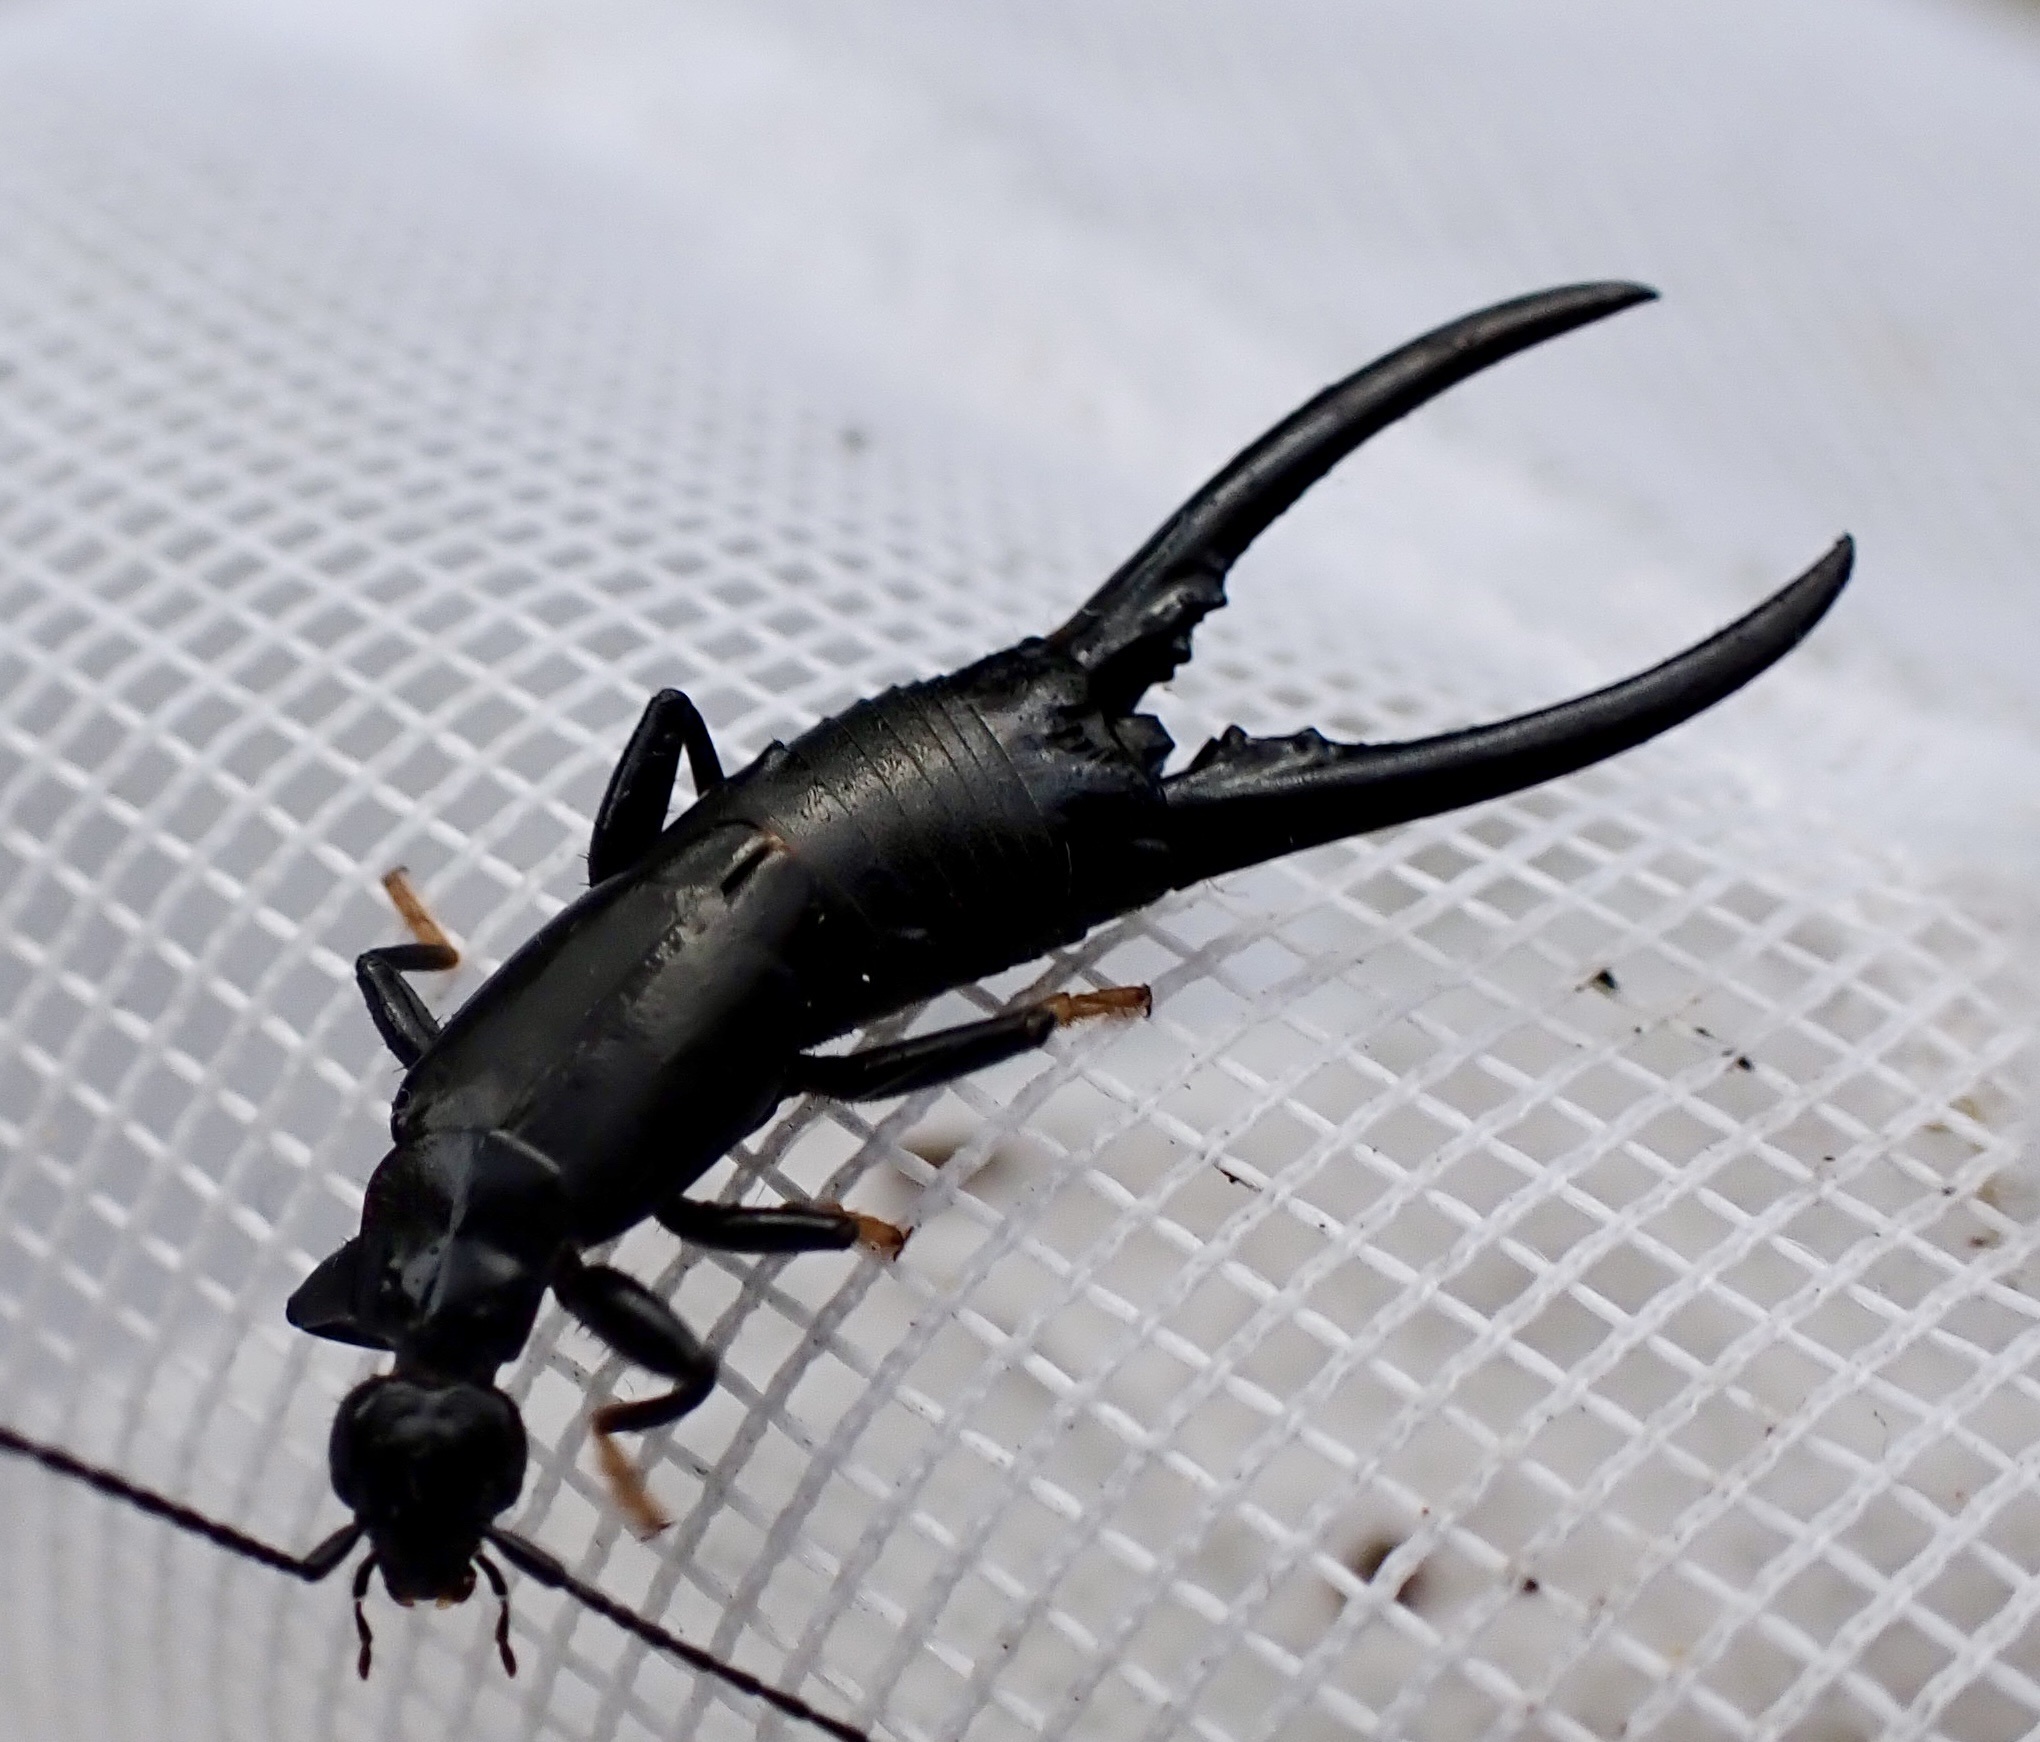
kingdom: Animalia
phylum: Arthropoda
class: Insecta
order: Dermaptera
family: Chelisochidae
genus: Chelisoches
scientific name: Chelisoches morio
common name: Black earwig
